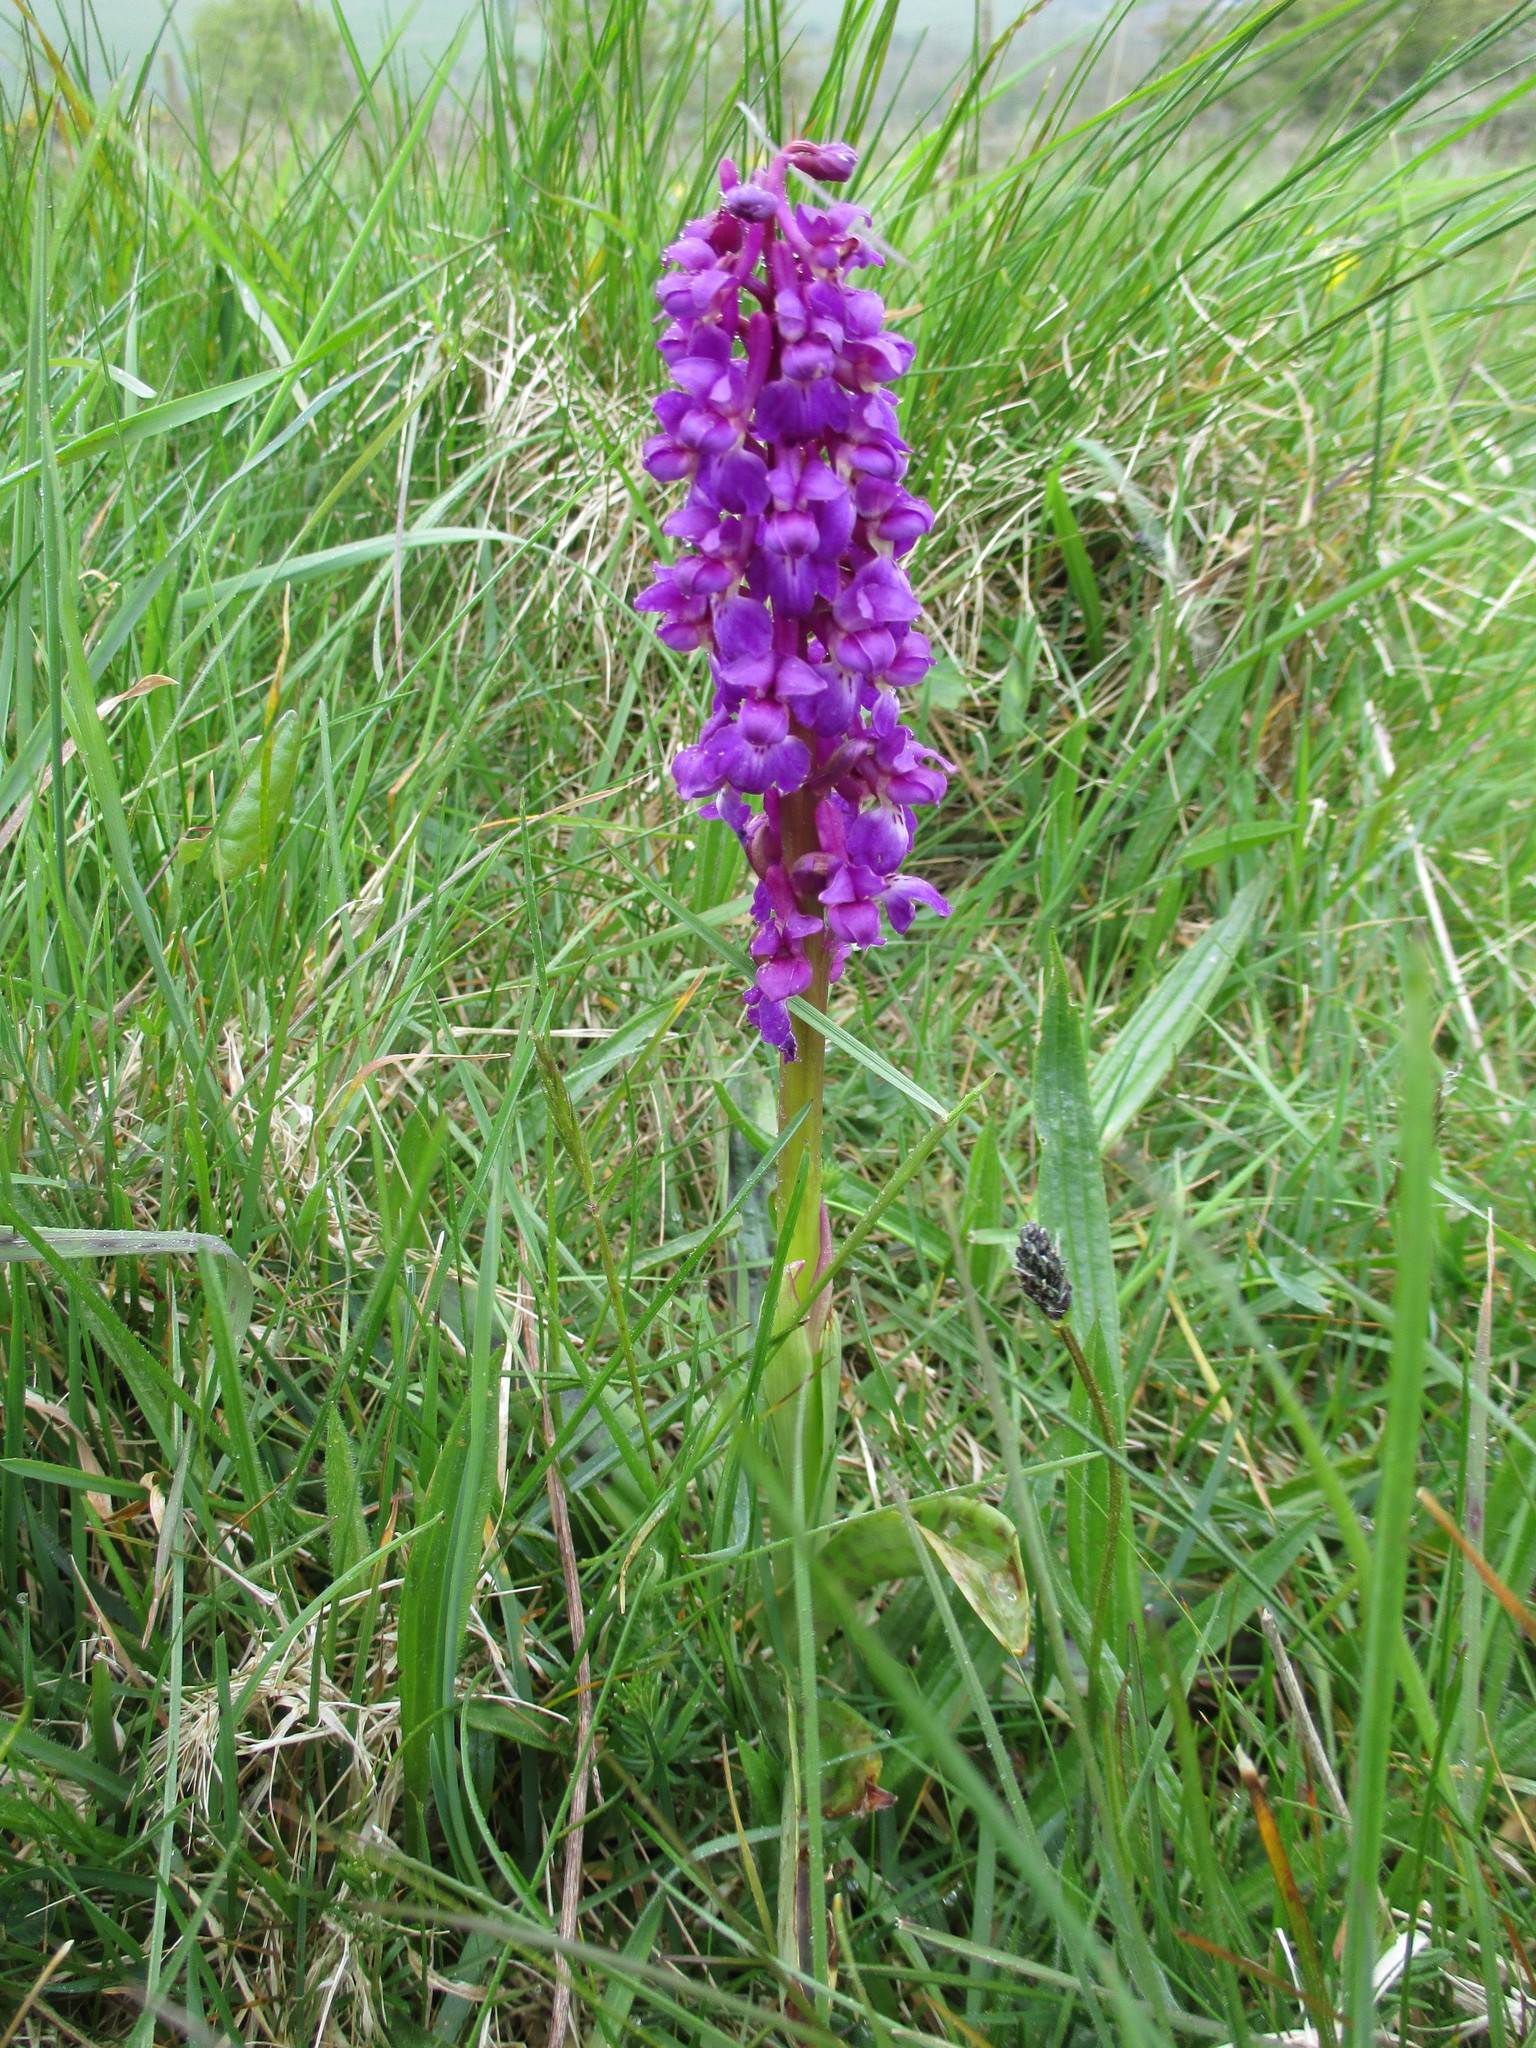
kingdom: Plantae
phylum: Tracheophyta
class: Liliopsida
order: Asparagales
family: Orchidaceae
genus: Orchis
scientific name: Orchis mascula
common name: Early-purple orchid
